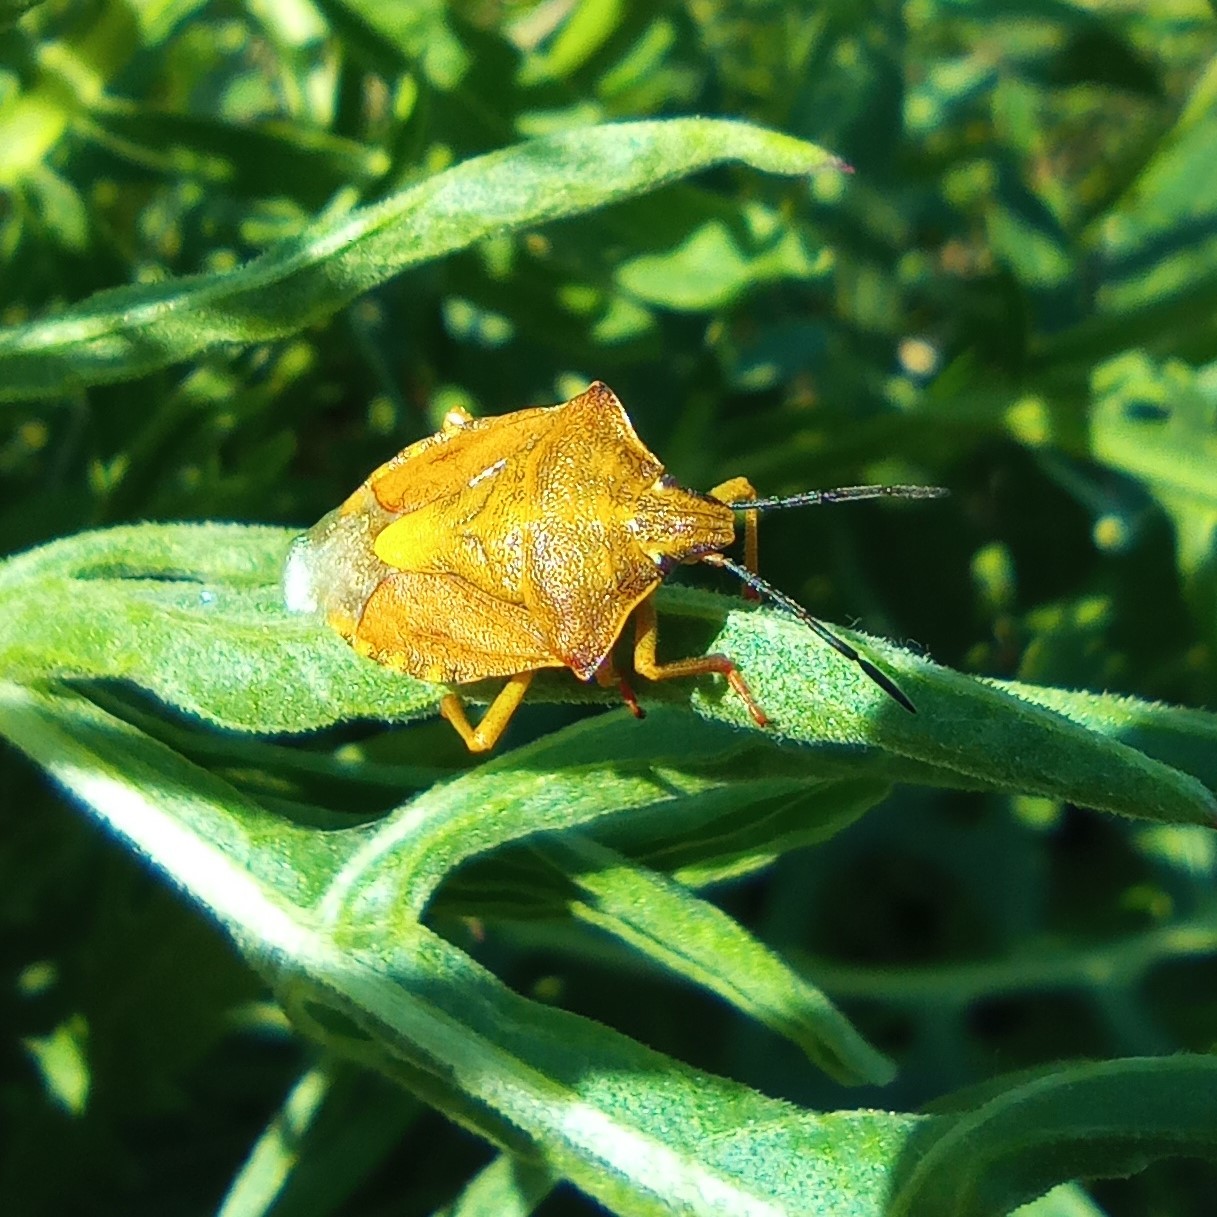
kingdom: Animalia
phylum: Arthropoda
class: Insecta
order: Hemiptera
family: Pentatomidae
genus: Carpocoris
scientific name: Carpocoris purpureipennis
